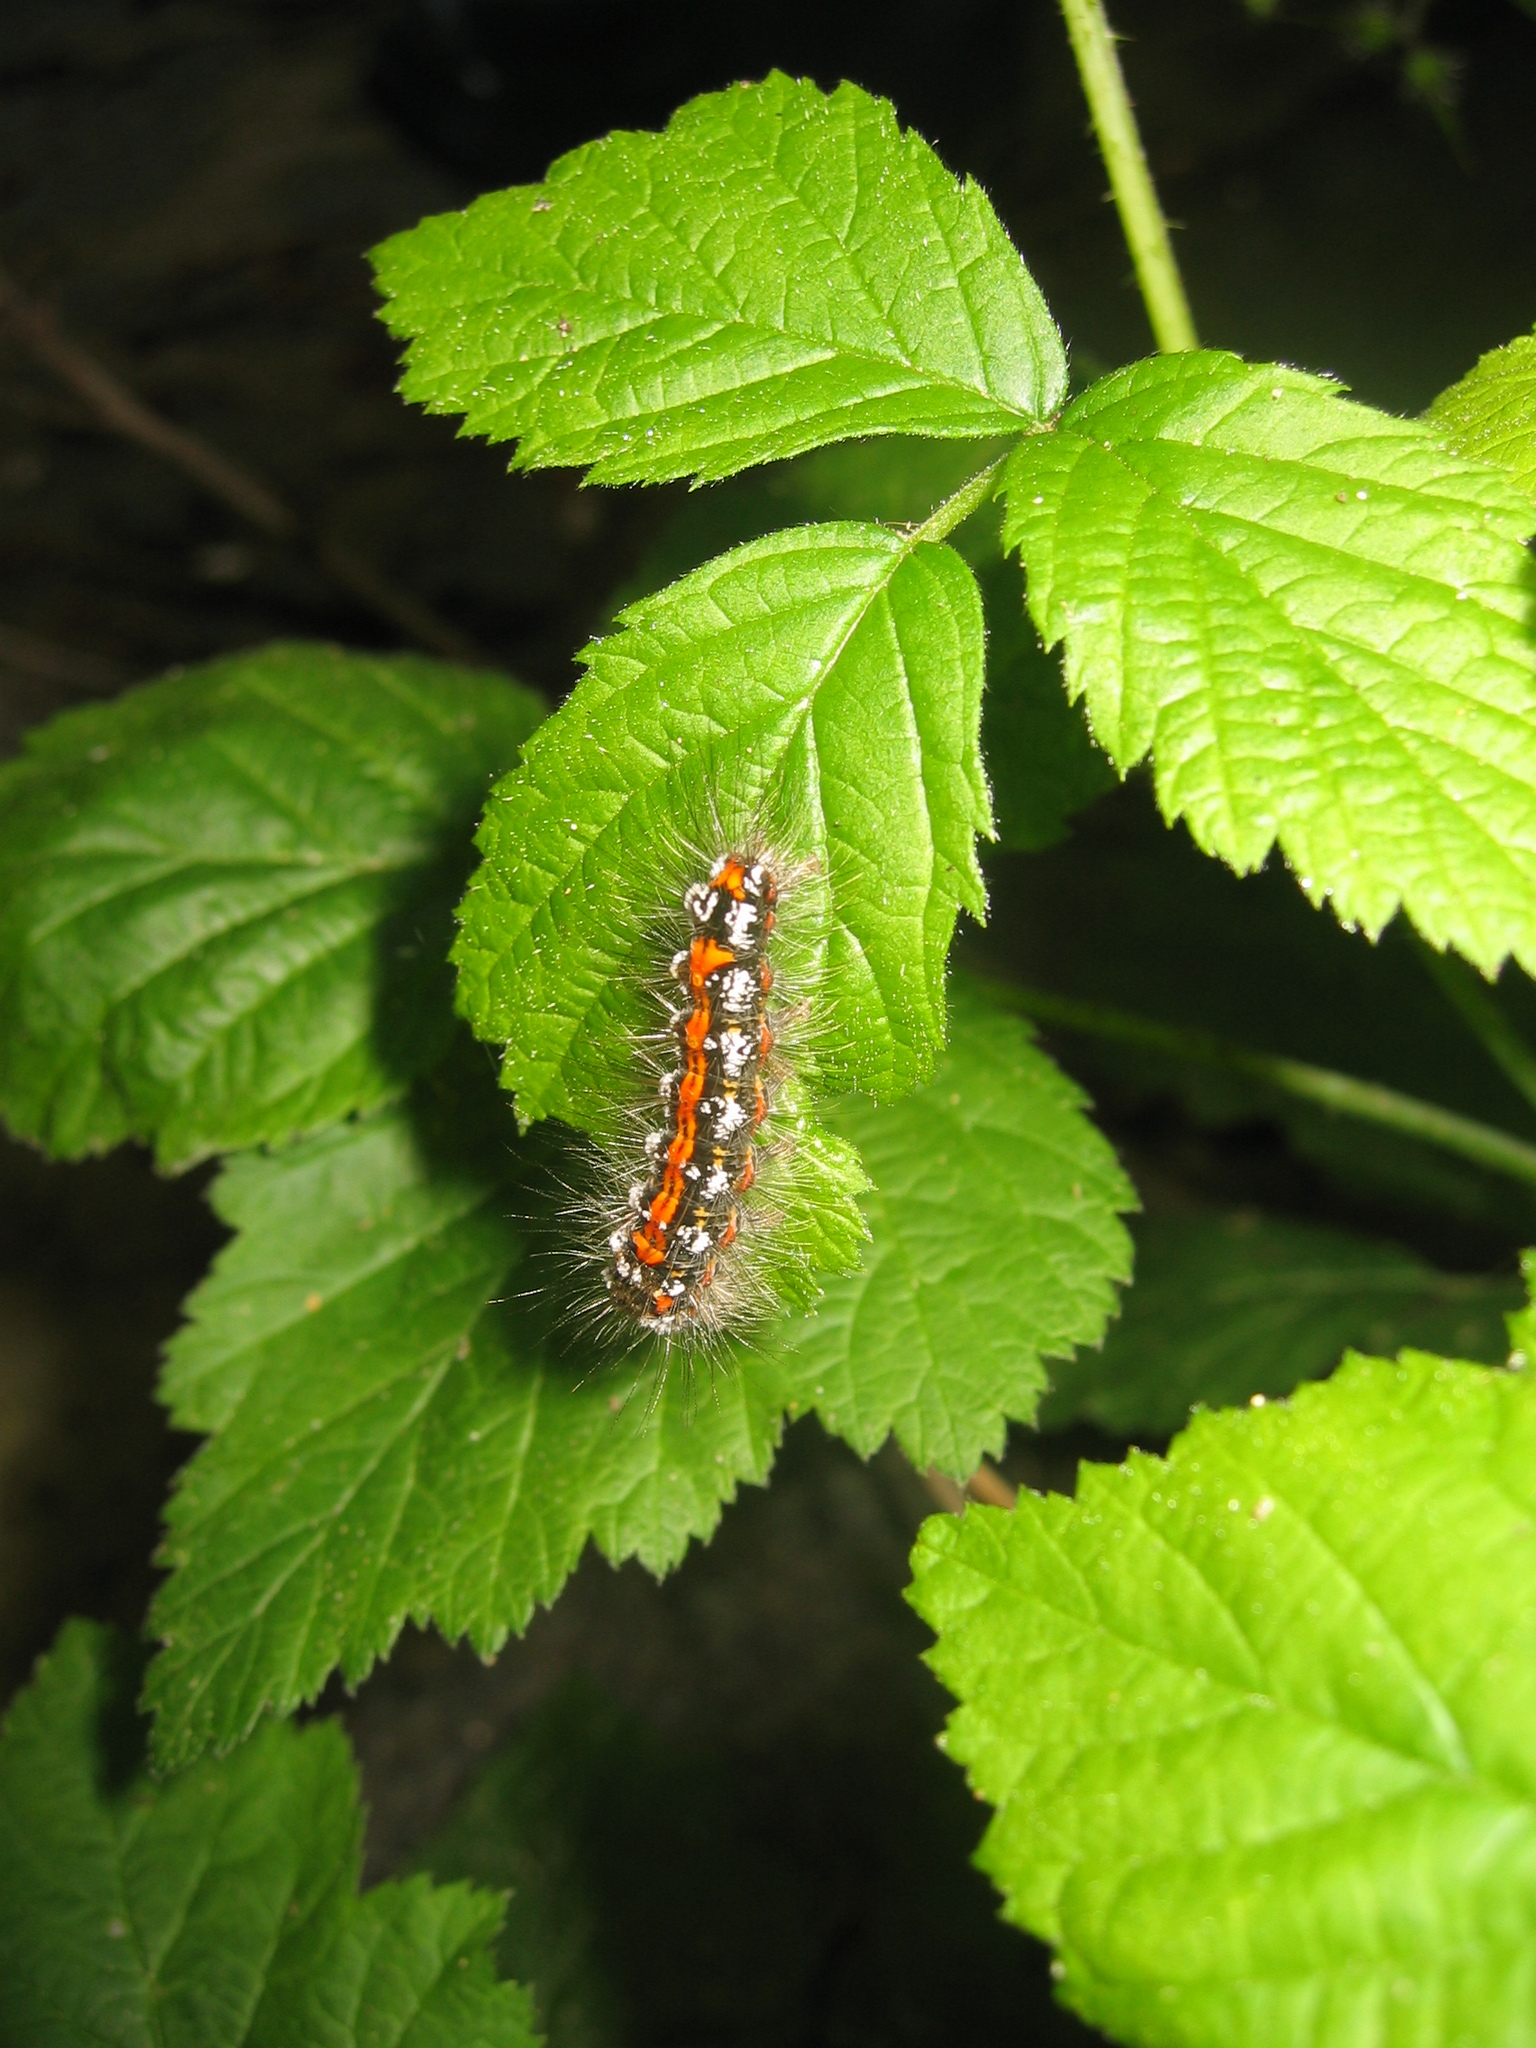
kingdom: Animalia
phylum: Arthropoda
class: Insecta
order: Lepidoptera
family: Erebidae
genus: Sphrageidus
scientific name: Sphrageidus similis
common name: Yellow-tail
